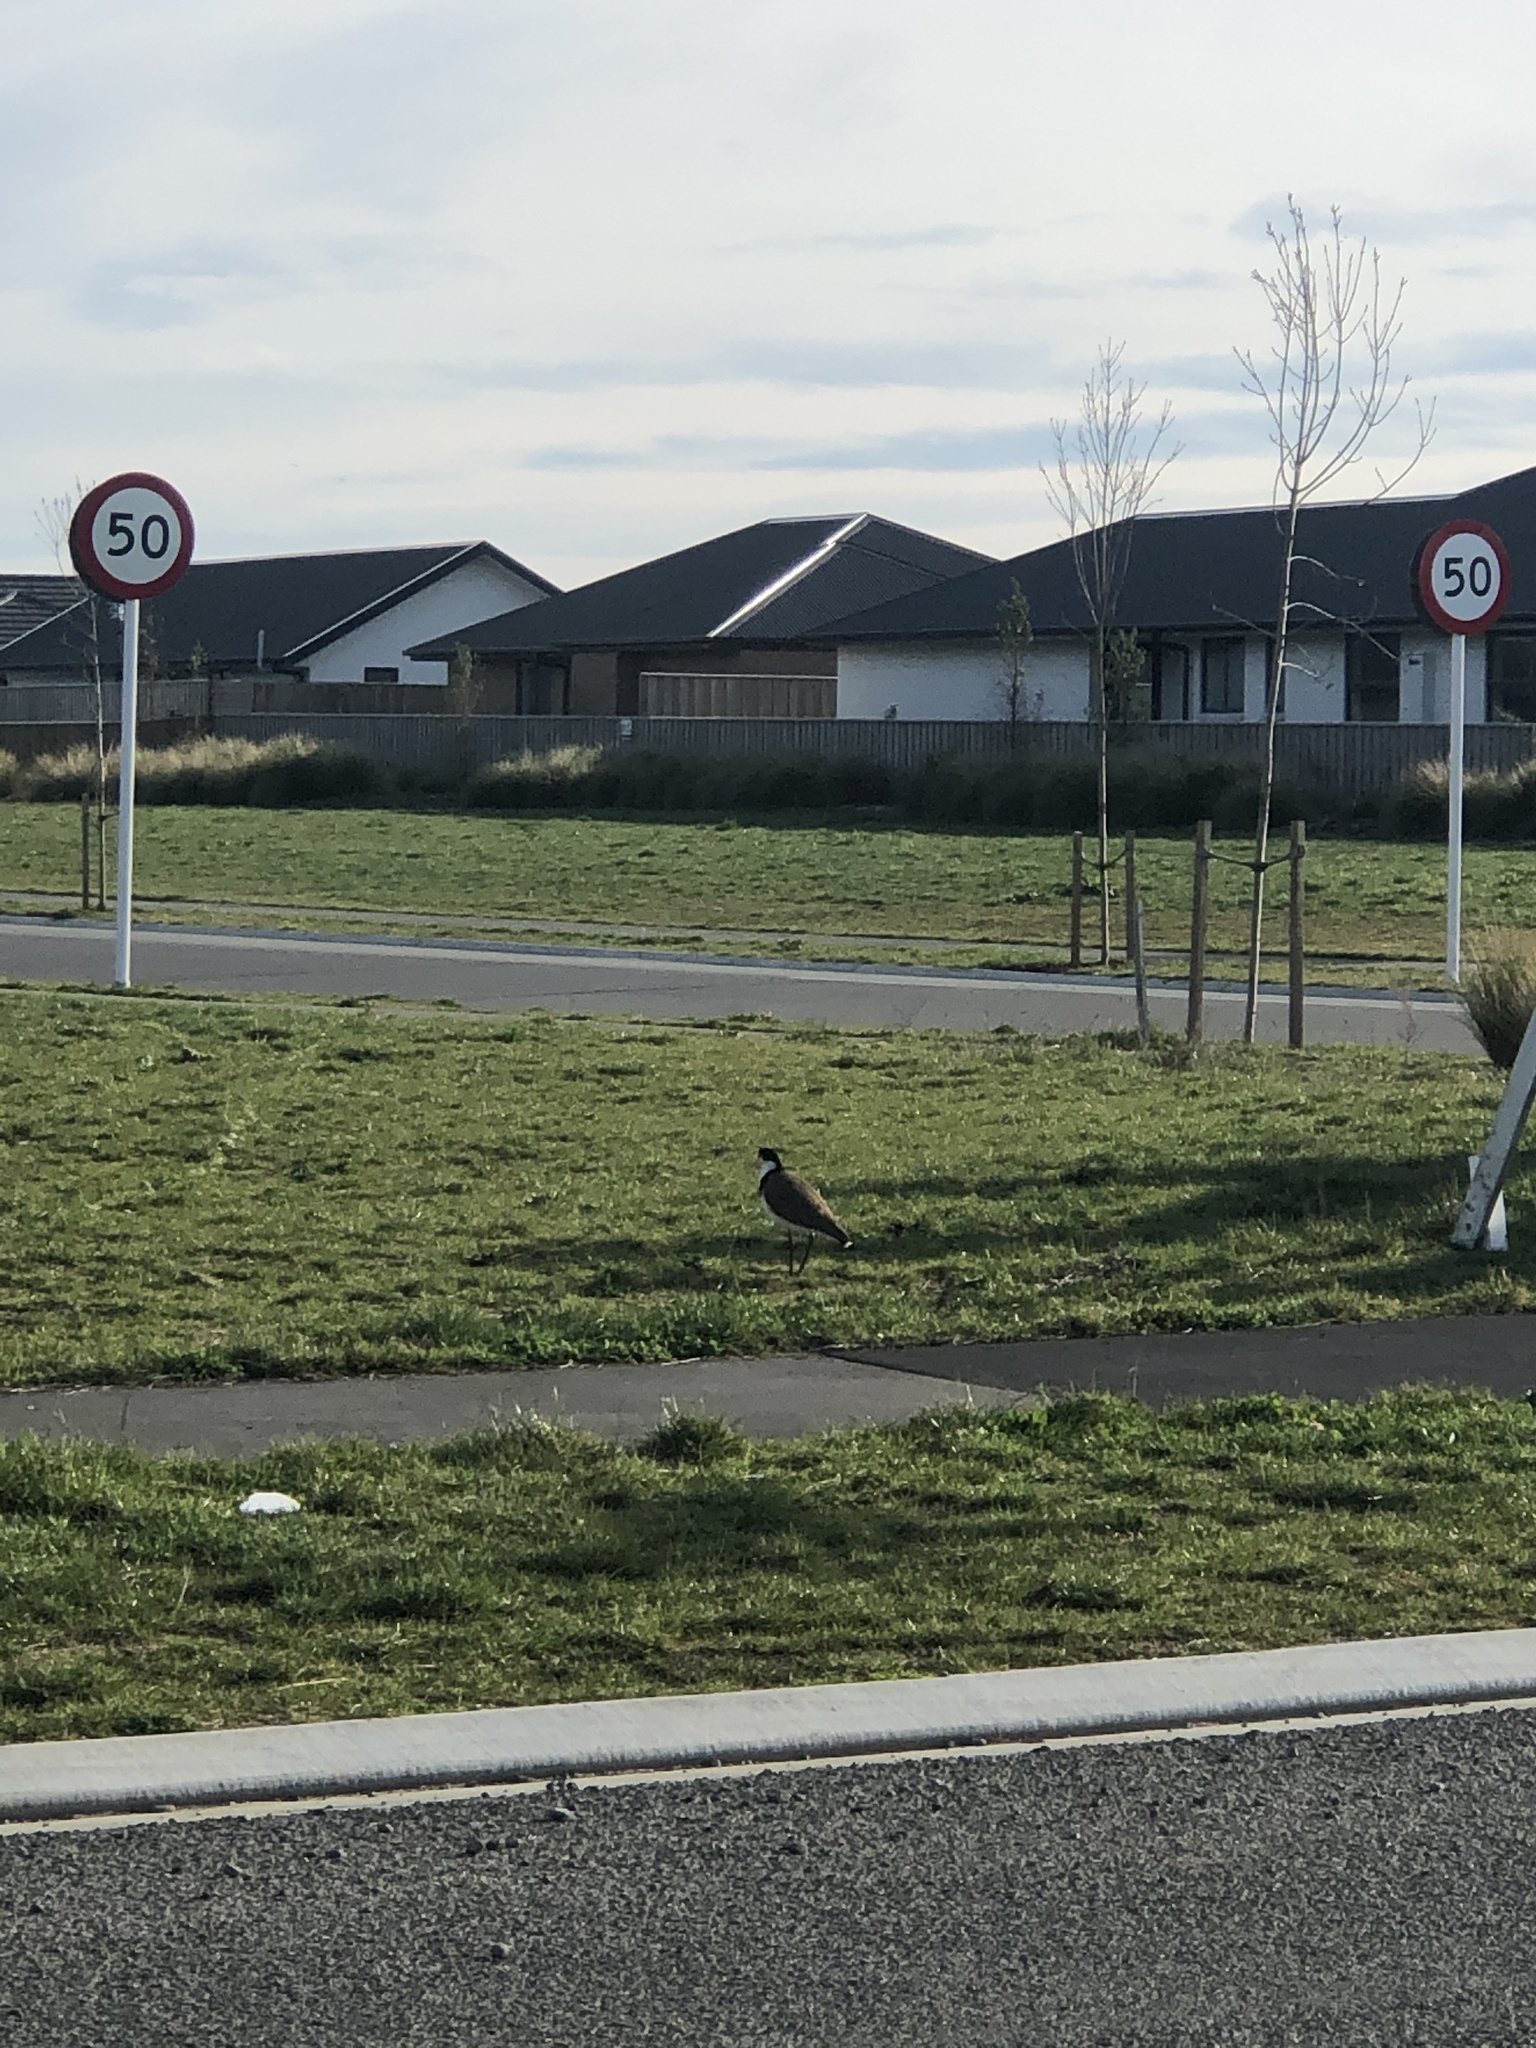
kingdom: Animalia
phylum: Chordata
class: Aves
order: Charadriiformes
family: Charadriidae
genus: Vanellus
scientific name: Vanellus miles
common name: Masked lapwing
